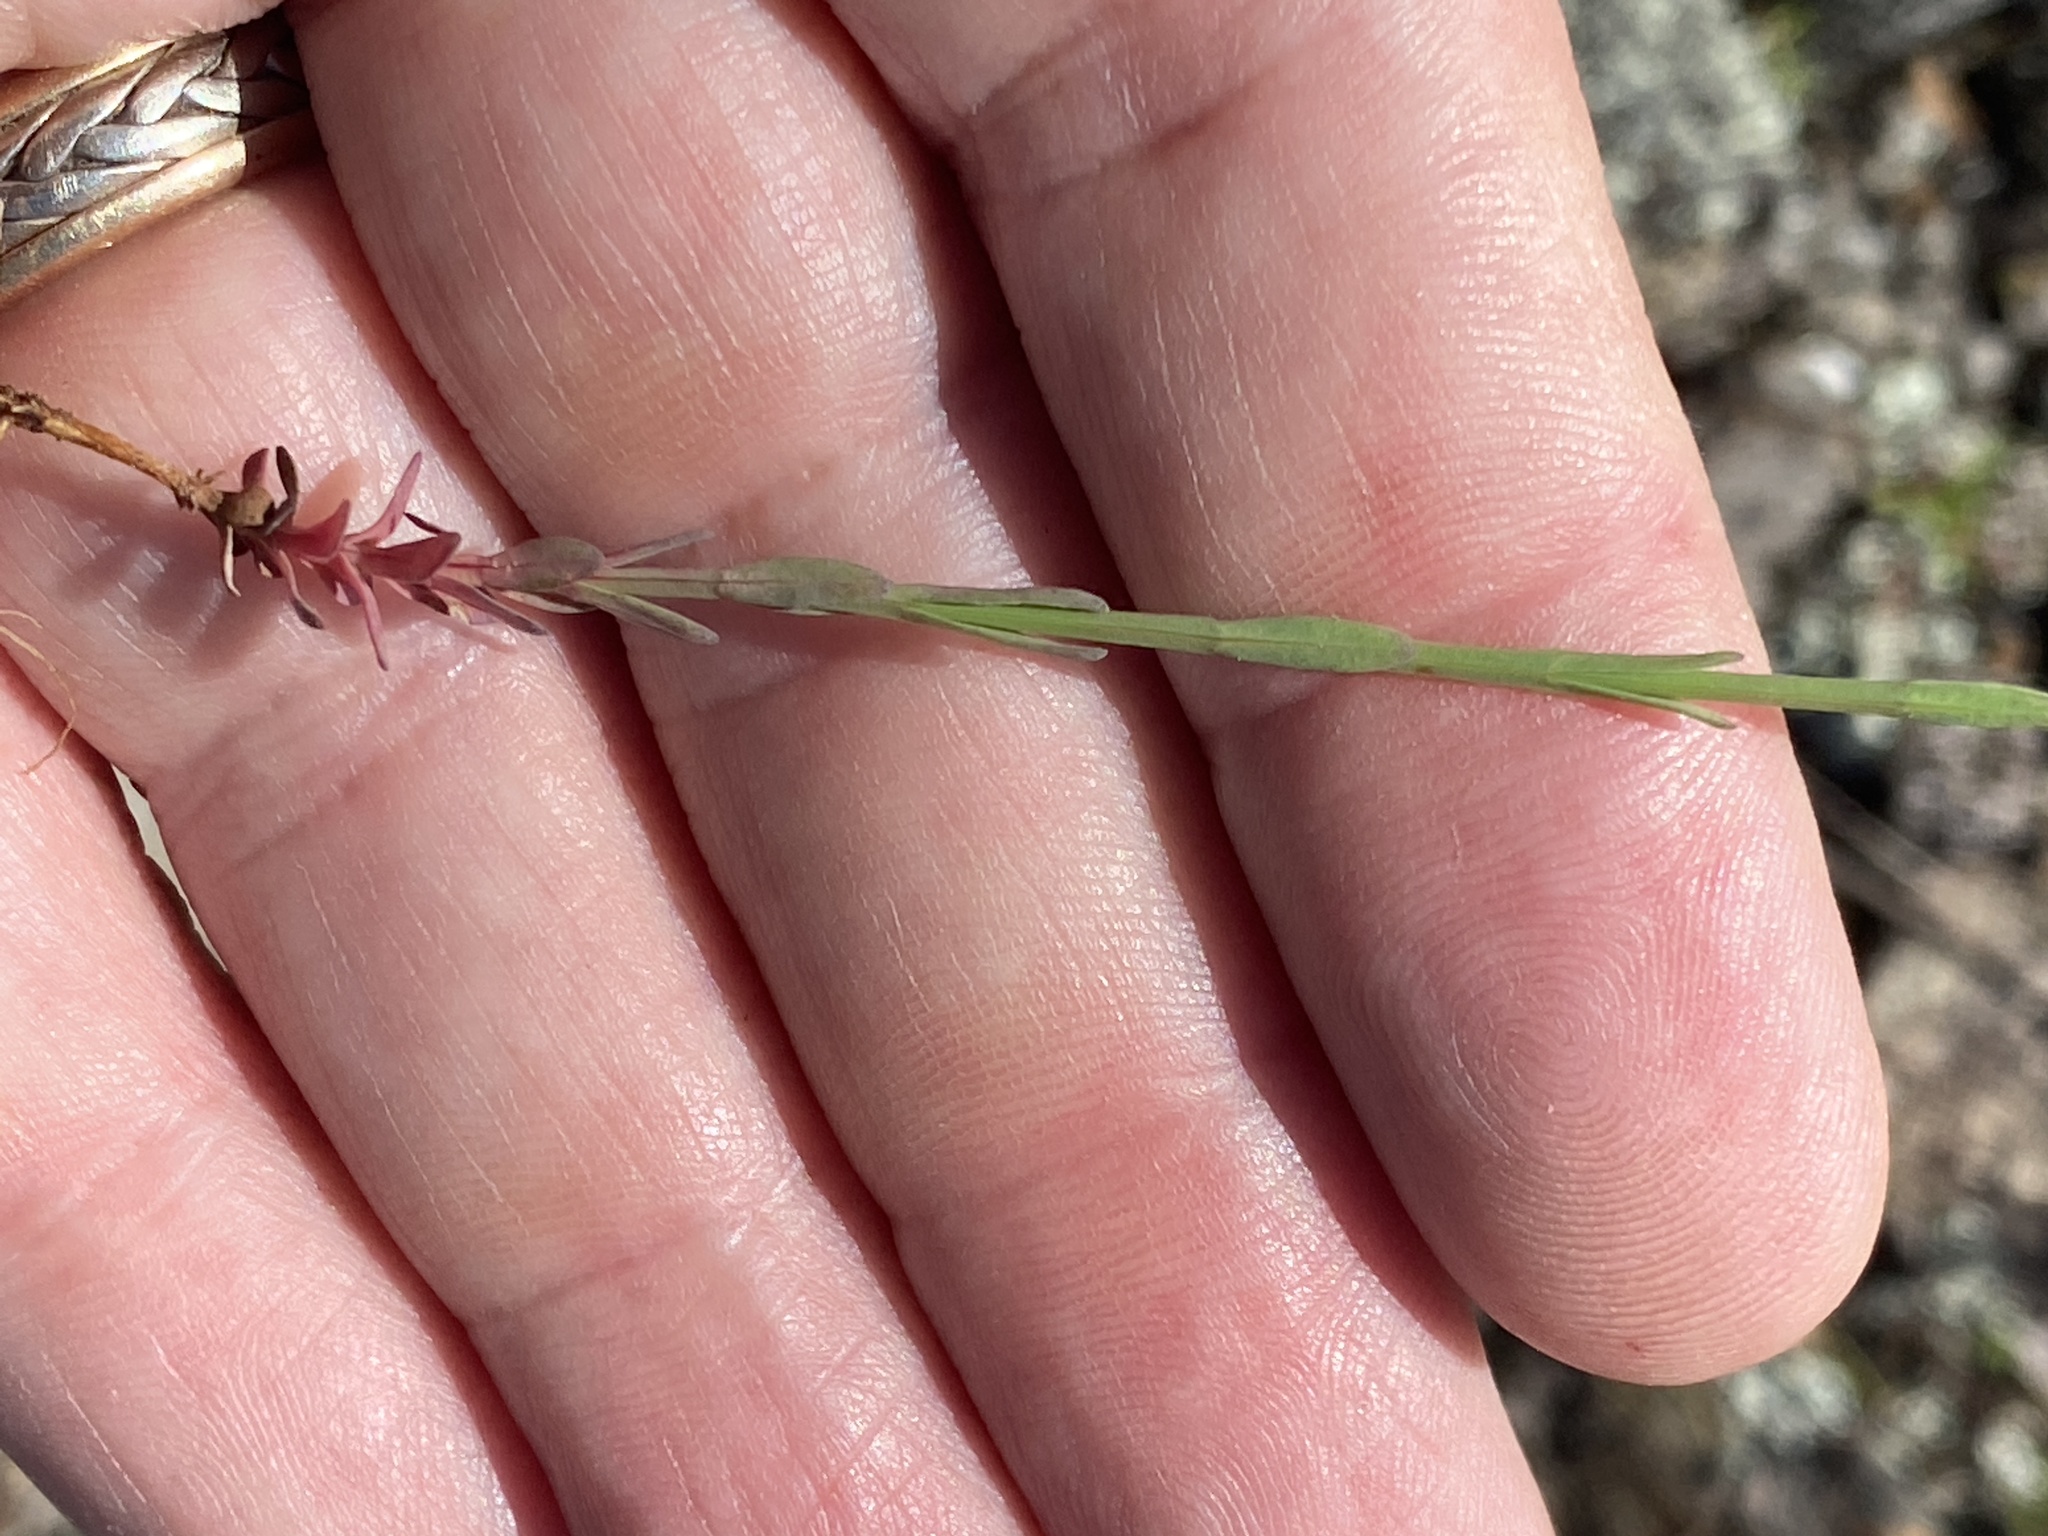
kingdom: Plantae
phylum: Tracheophyta
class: Magnoliopsida
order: Malpighiales
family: Hypericaceae
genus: Hypericum
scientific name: Hypericum gentianoides
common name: Gentian-leaved st. john's-wort
